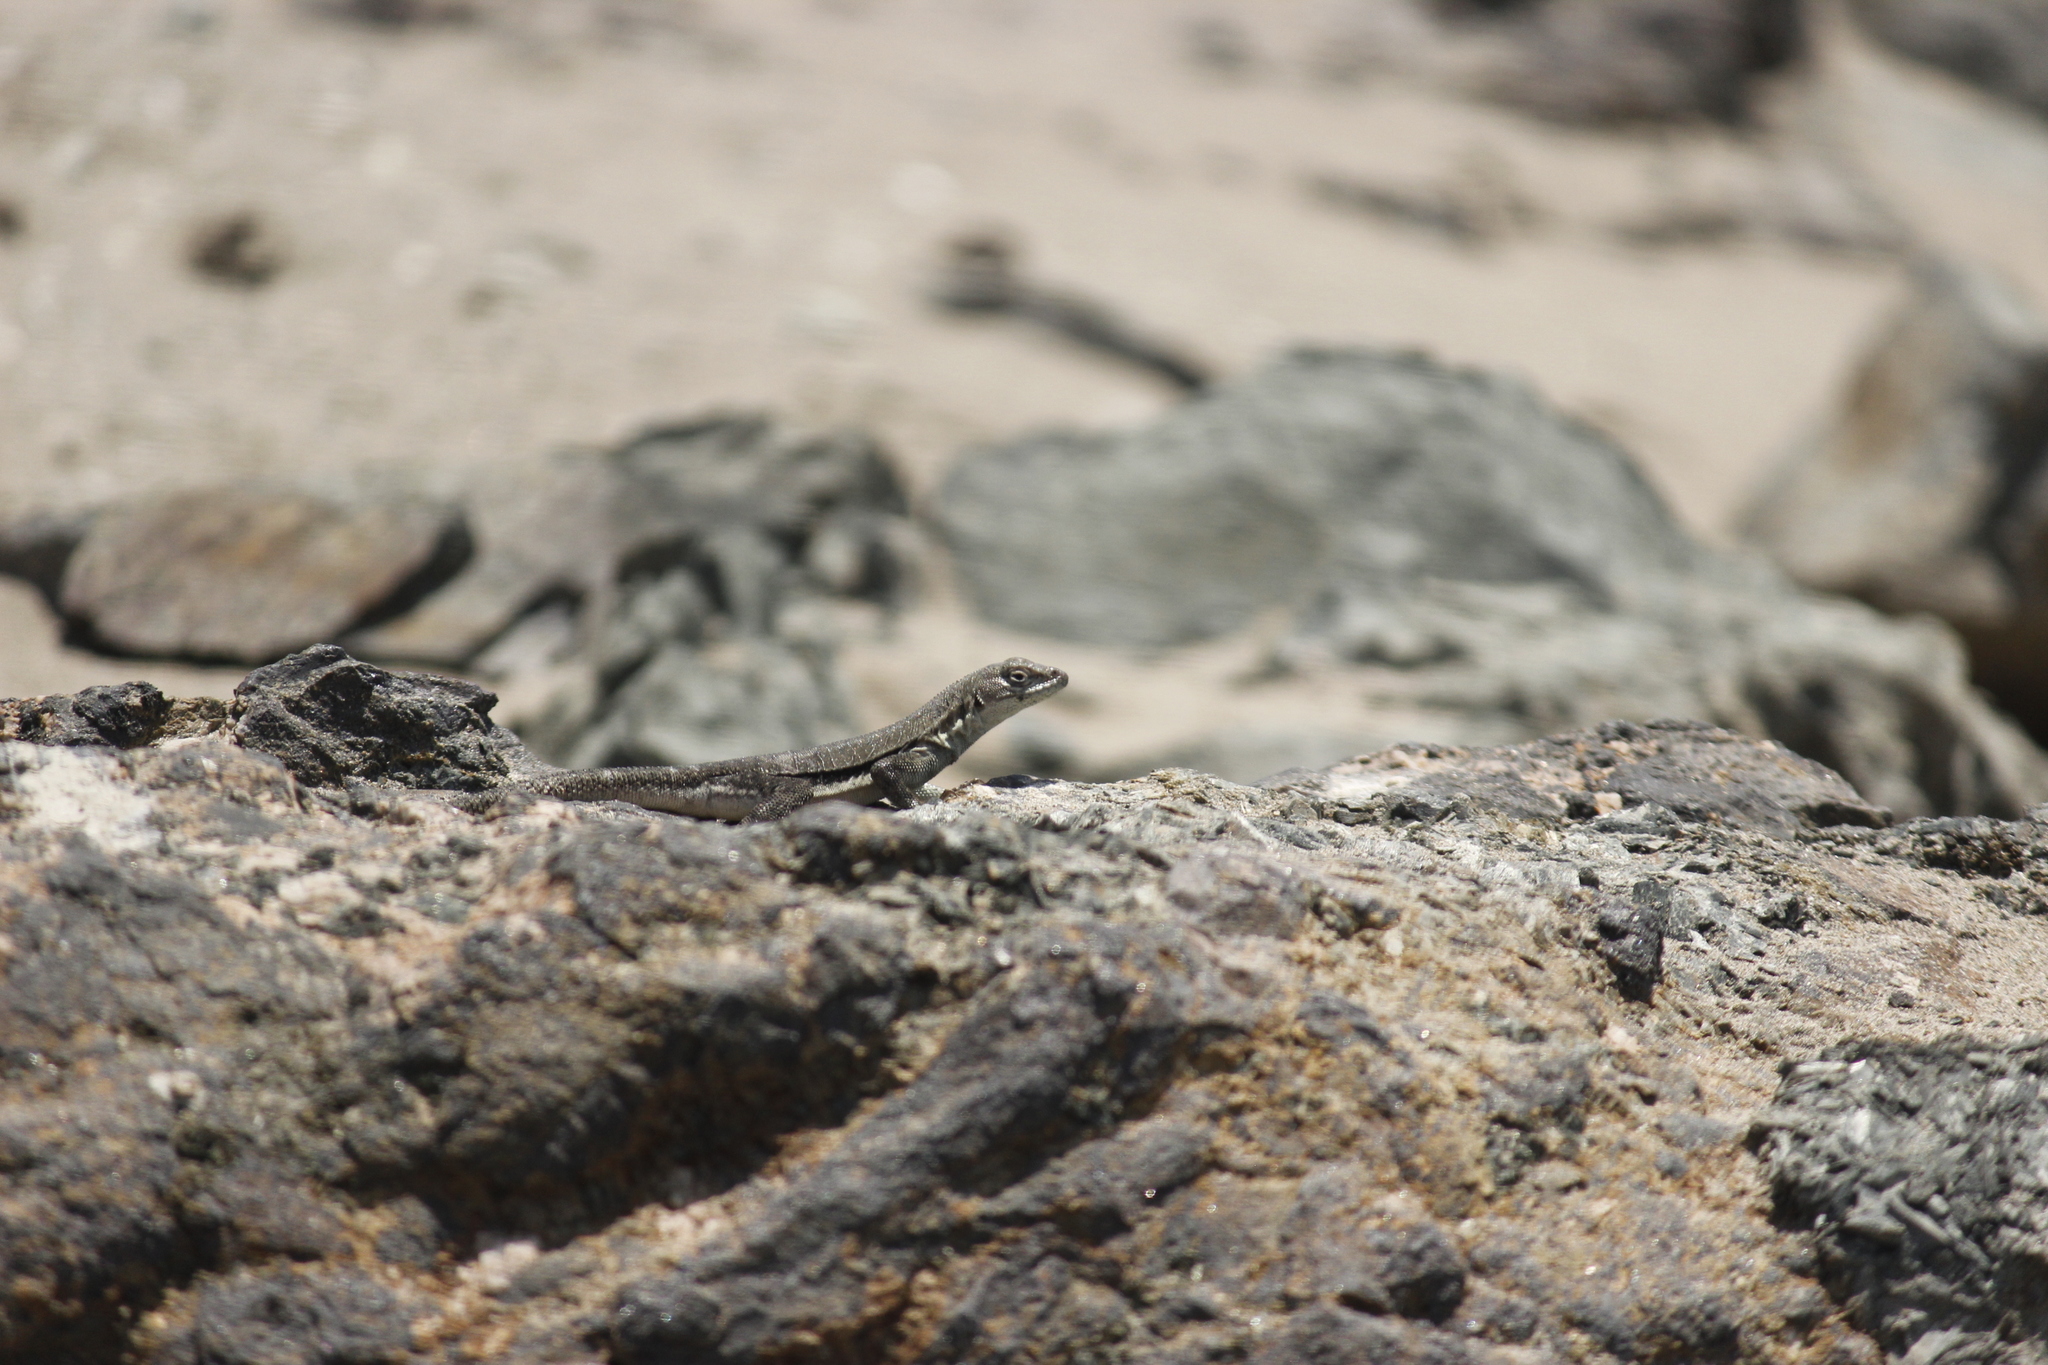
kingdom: Animalia
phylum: Chordata
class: Squamata
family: Tropiduridae
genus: Microlophus
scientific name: Microlophus peruvianus
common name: Peru pacific iguana
